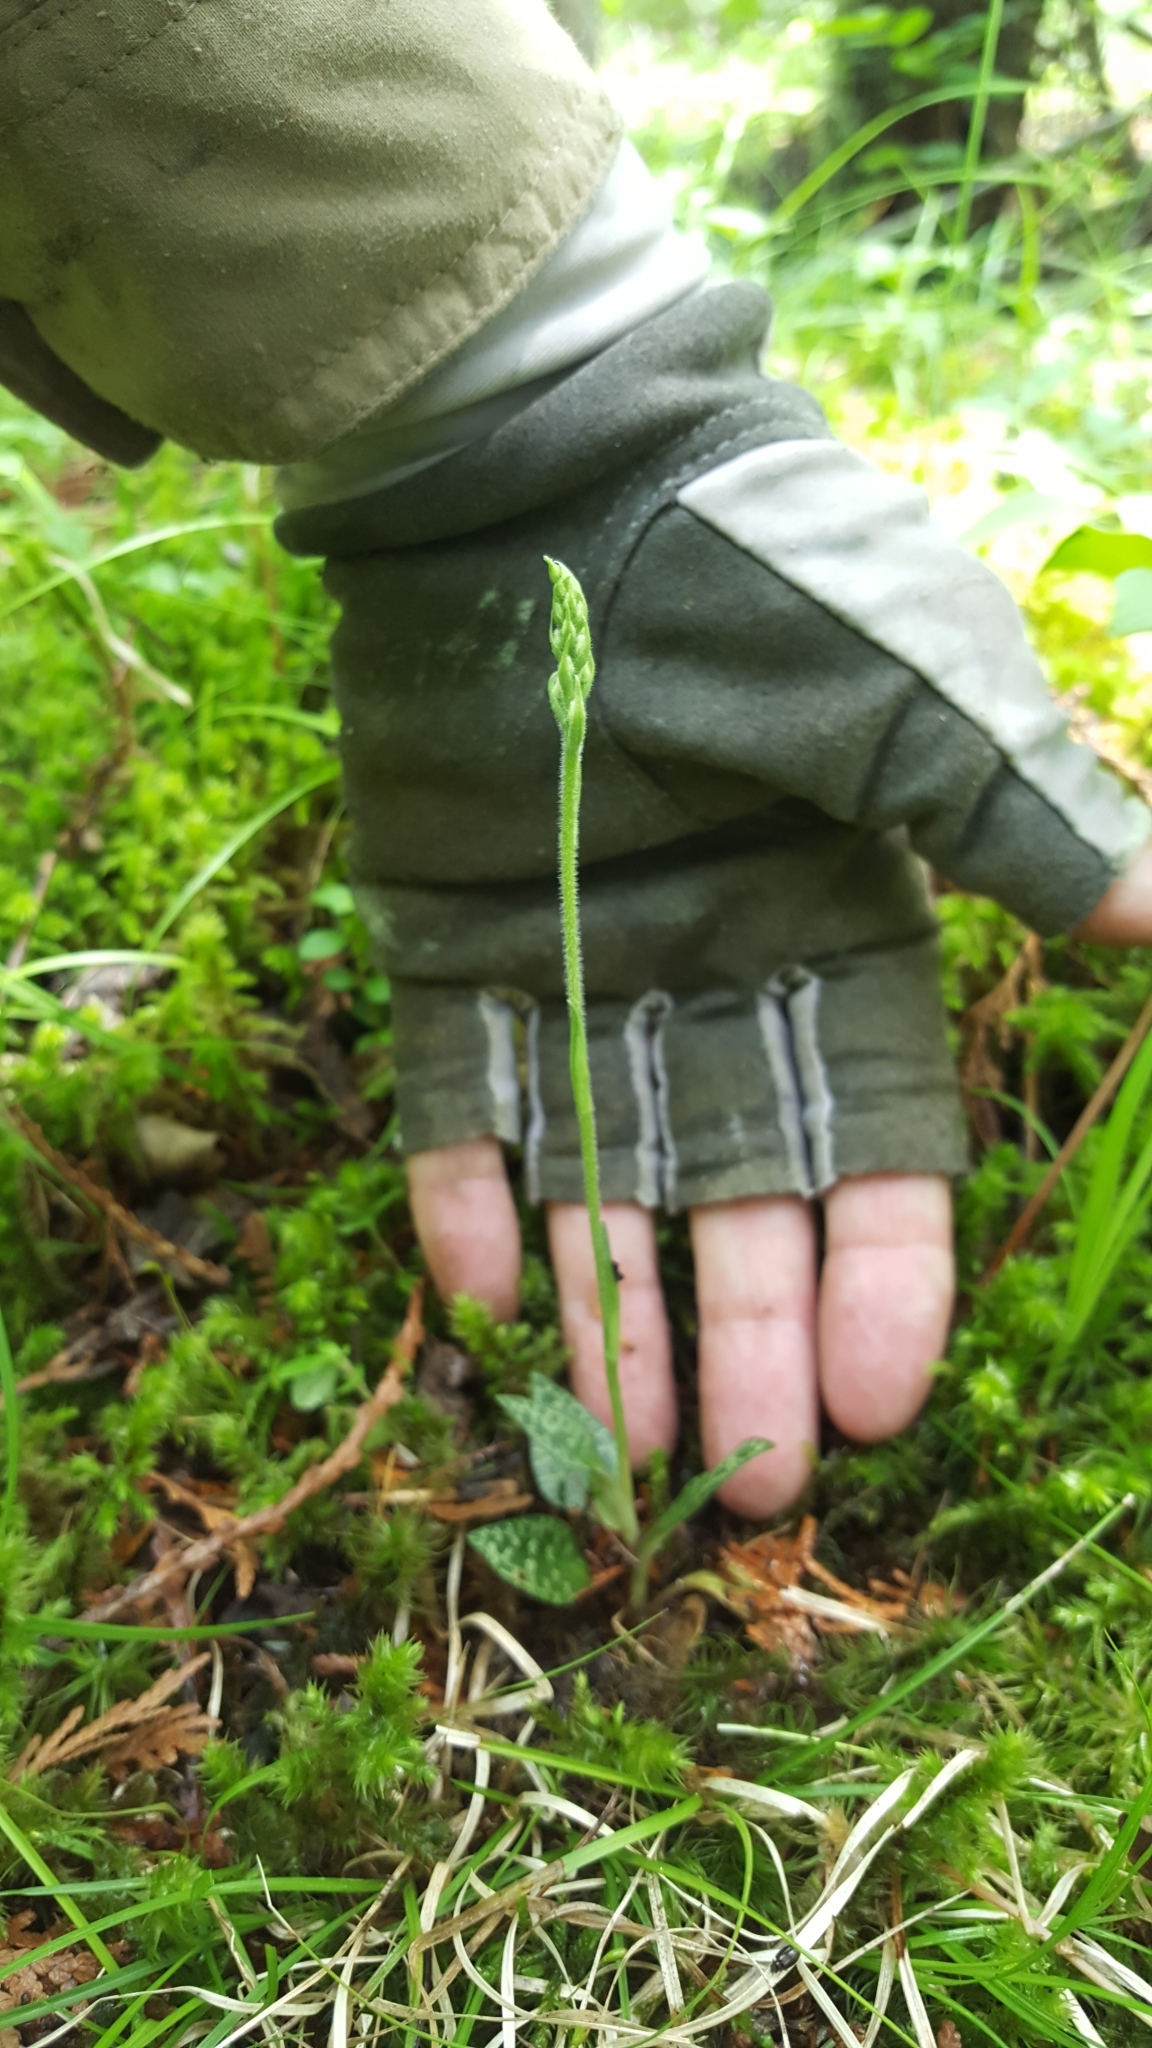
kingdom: Plantae
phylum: Tracheophyta
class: Liliopsida
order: Asparagales
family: Orchidaceae
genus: Goodyera
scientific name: Goodyera repens
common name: Creeping lady's-tresses
